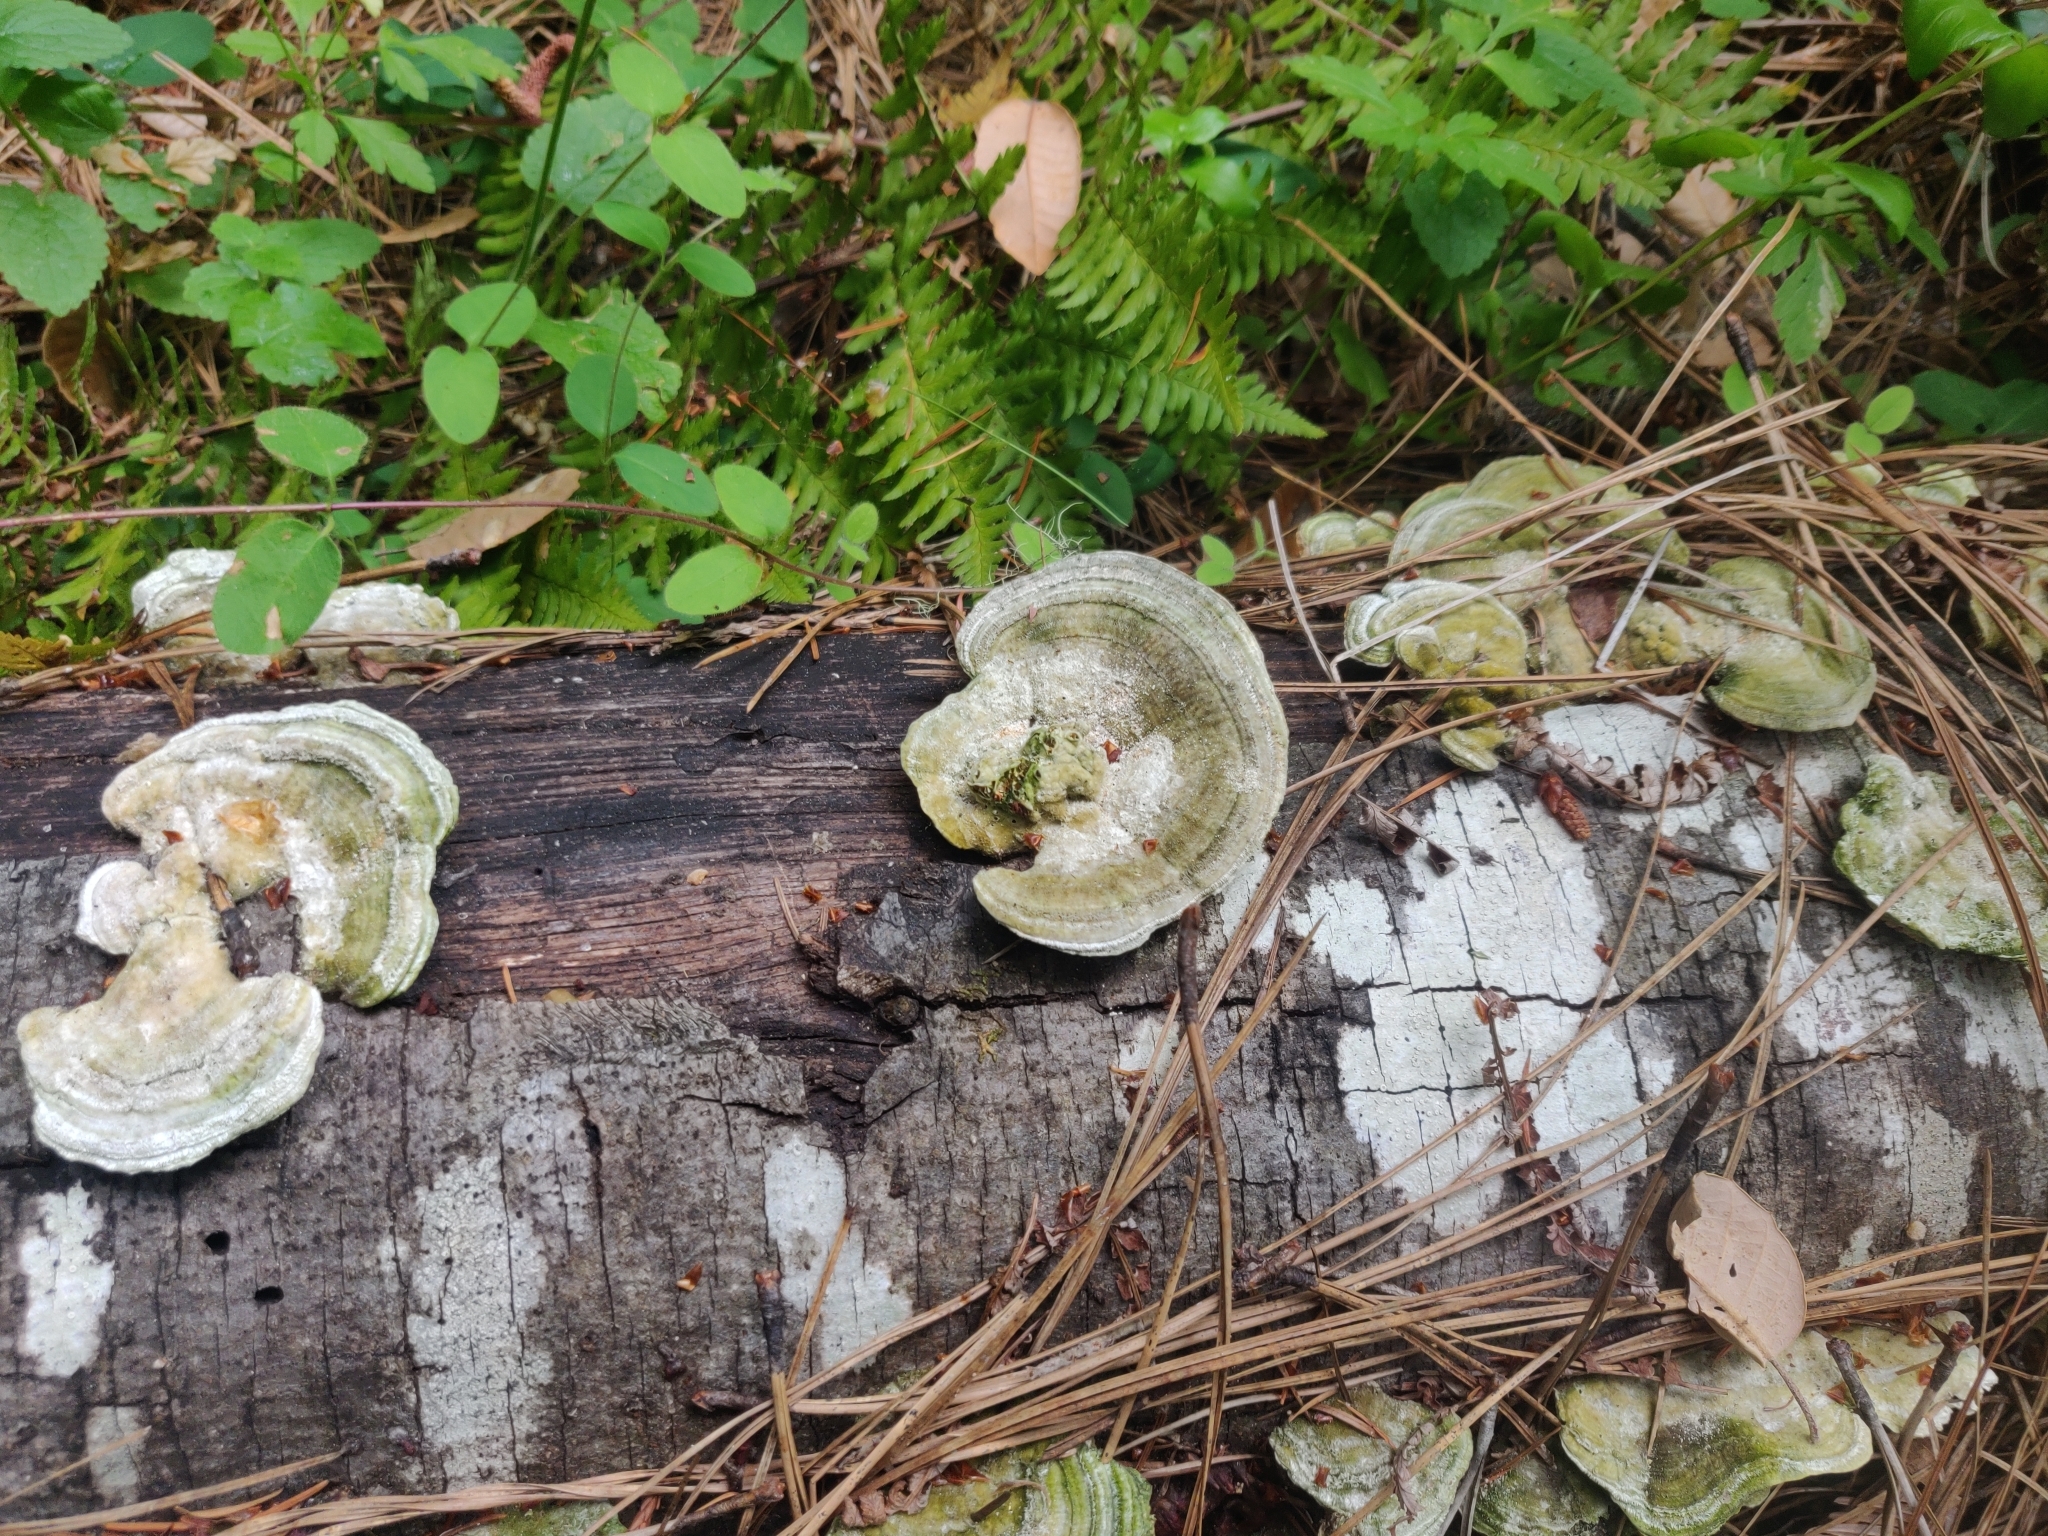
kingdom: Fungi
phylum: Basidiomycota
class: Agaricomycetes
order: Polyporales
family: Polyporaceae
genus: Lenzites
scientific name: Lenzites betulinus
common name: Birch mazegill
